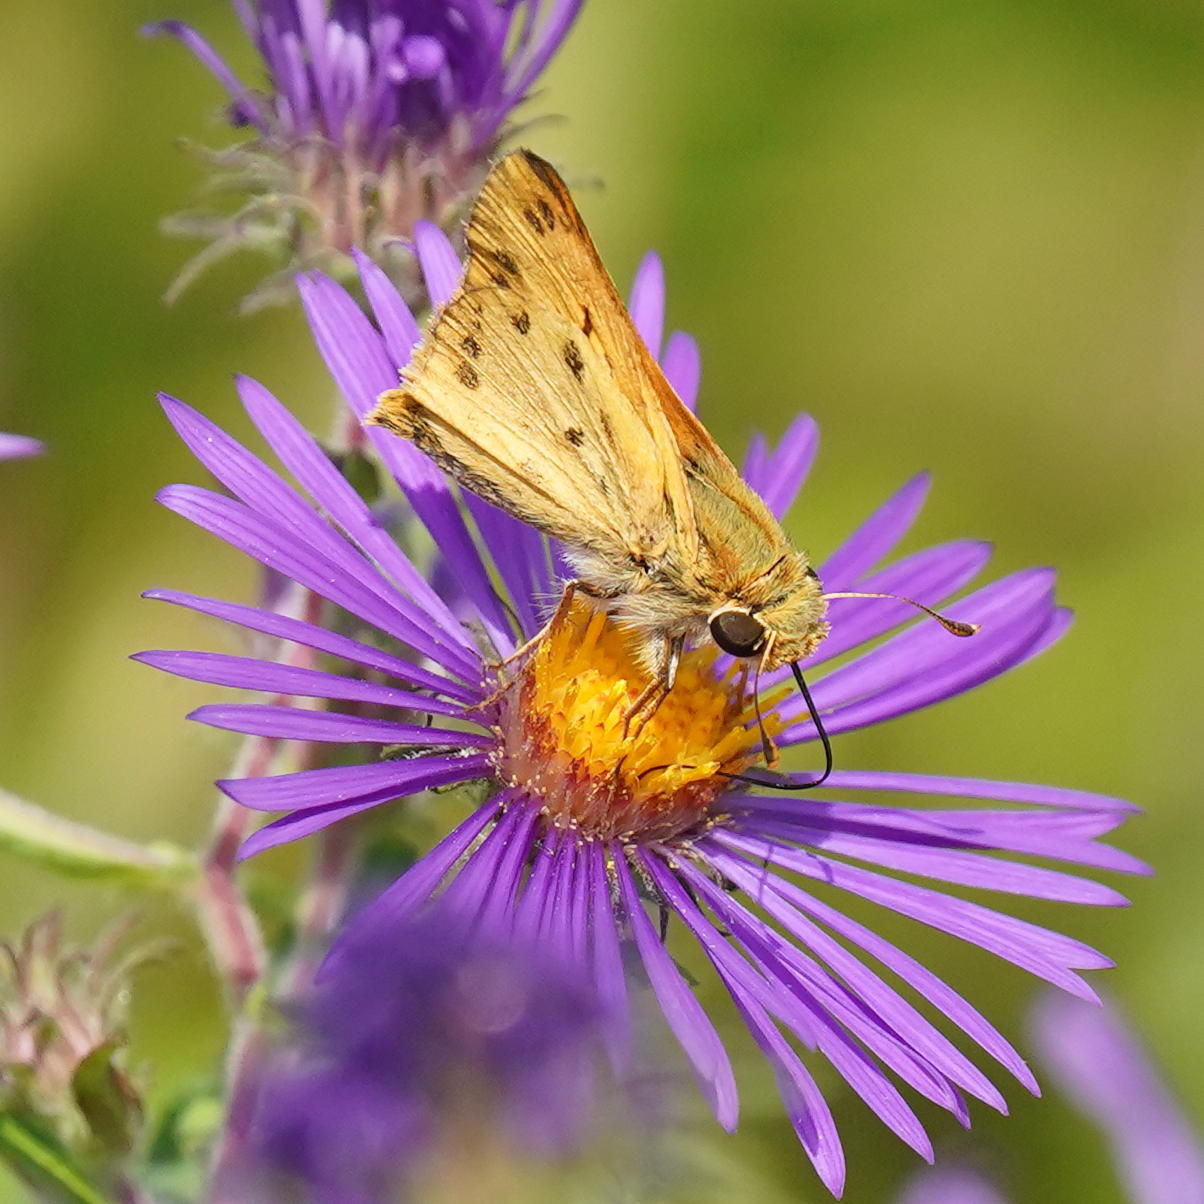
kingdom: Animalia
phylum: Arthropoda
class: Insecta
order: Lepidoptera
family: Hesperiidae
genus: Hylephila
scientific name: Hylephila phyleus
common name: Fiery skipper
